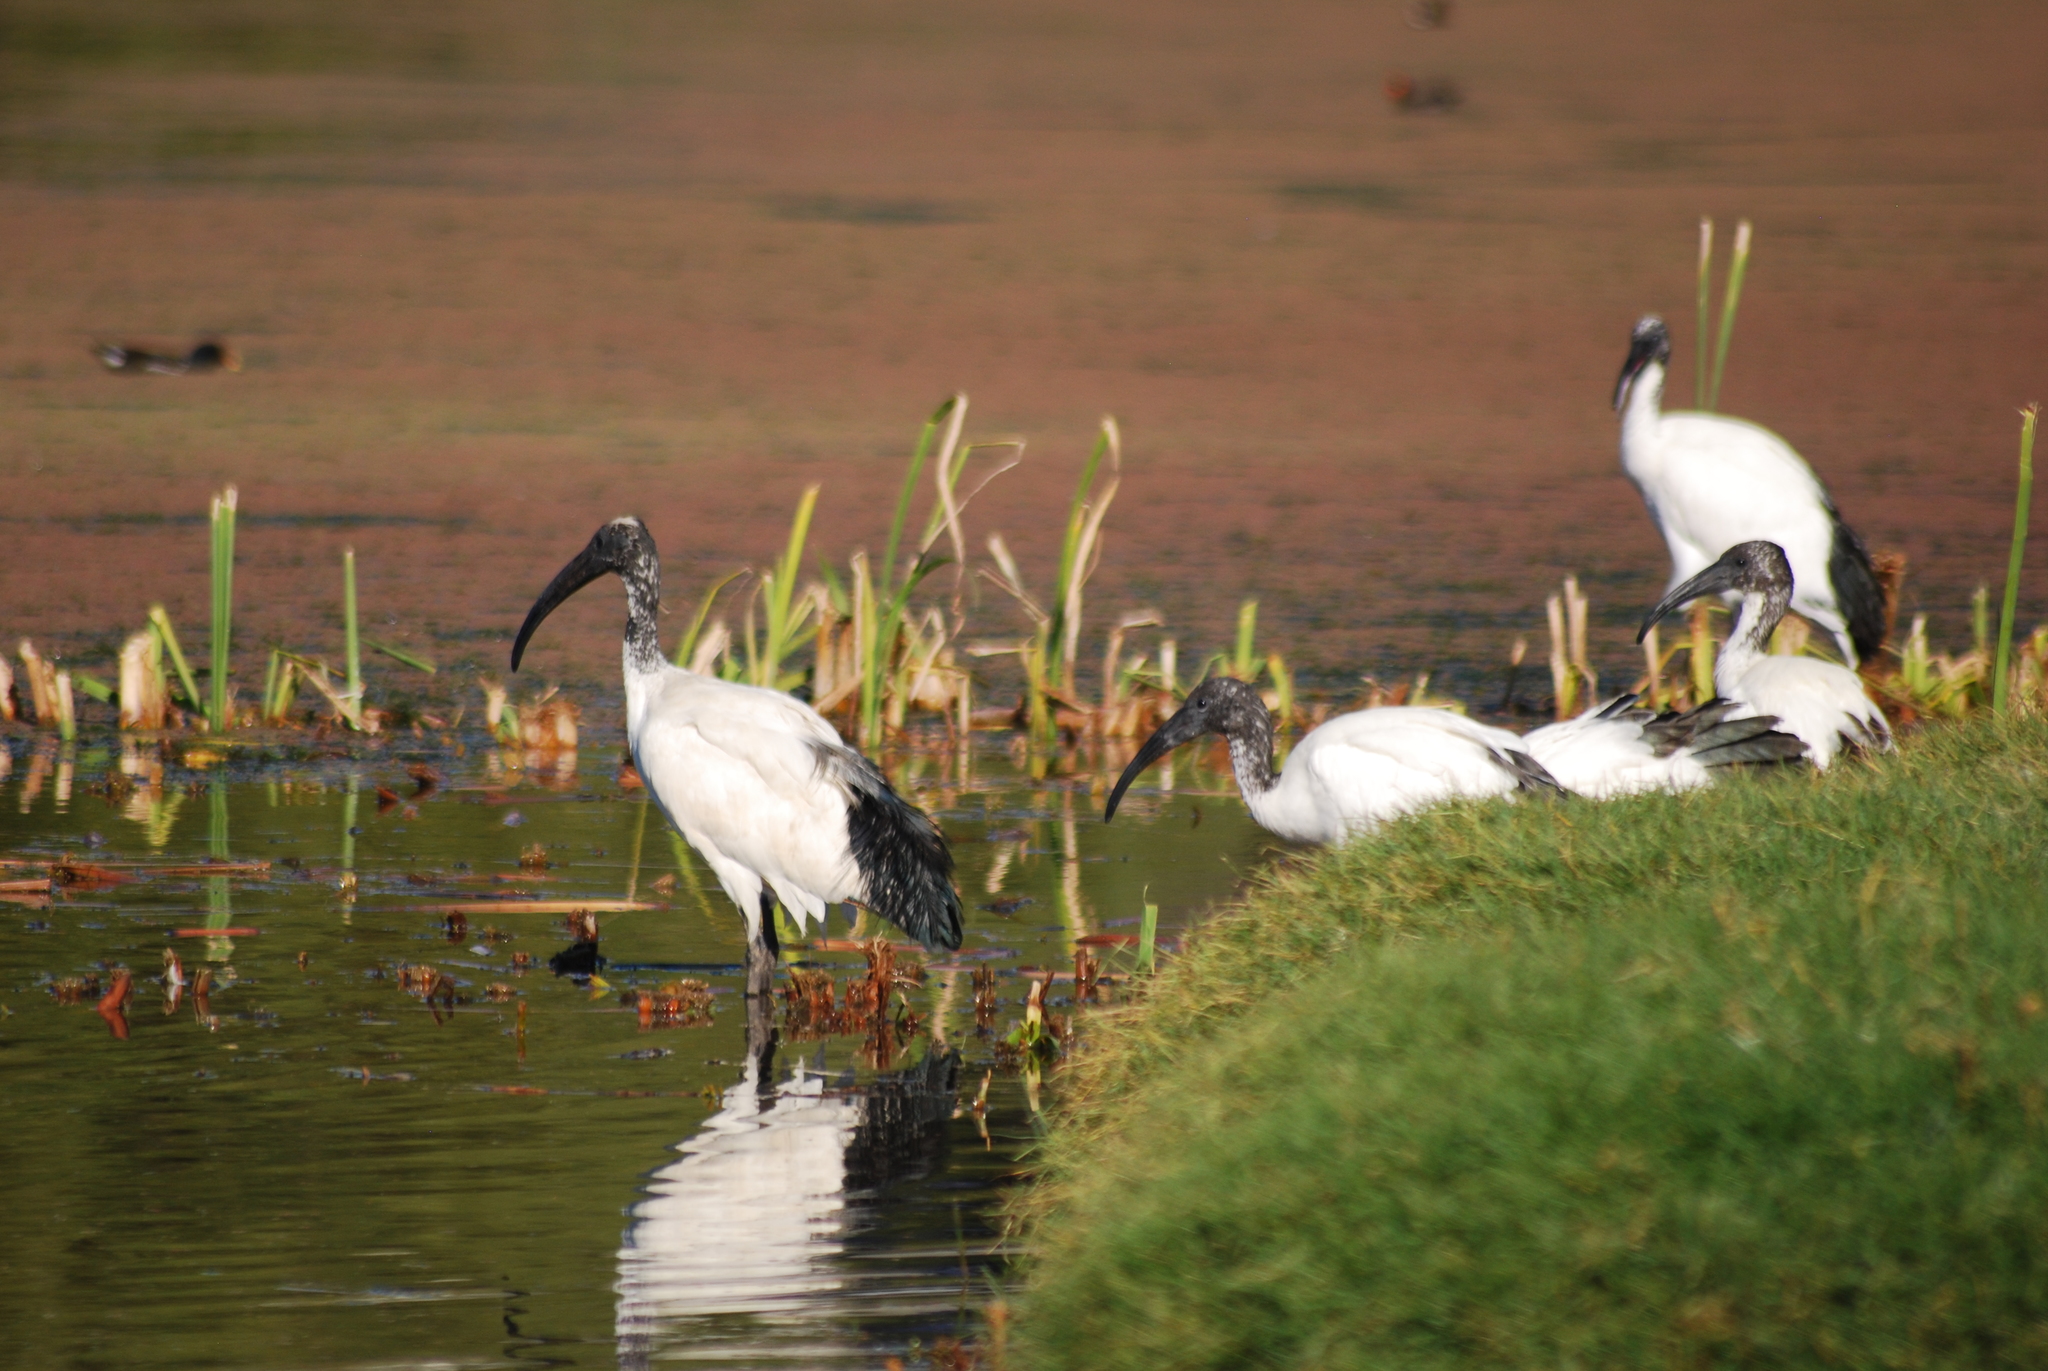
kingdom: Animalia
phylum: Chordata
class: Aves
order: Pelecaniformes
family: Threskiornithidae
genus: Threskiornis
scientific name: Threskiornis aethiopicus
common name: Sacred ibis
